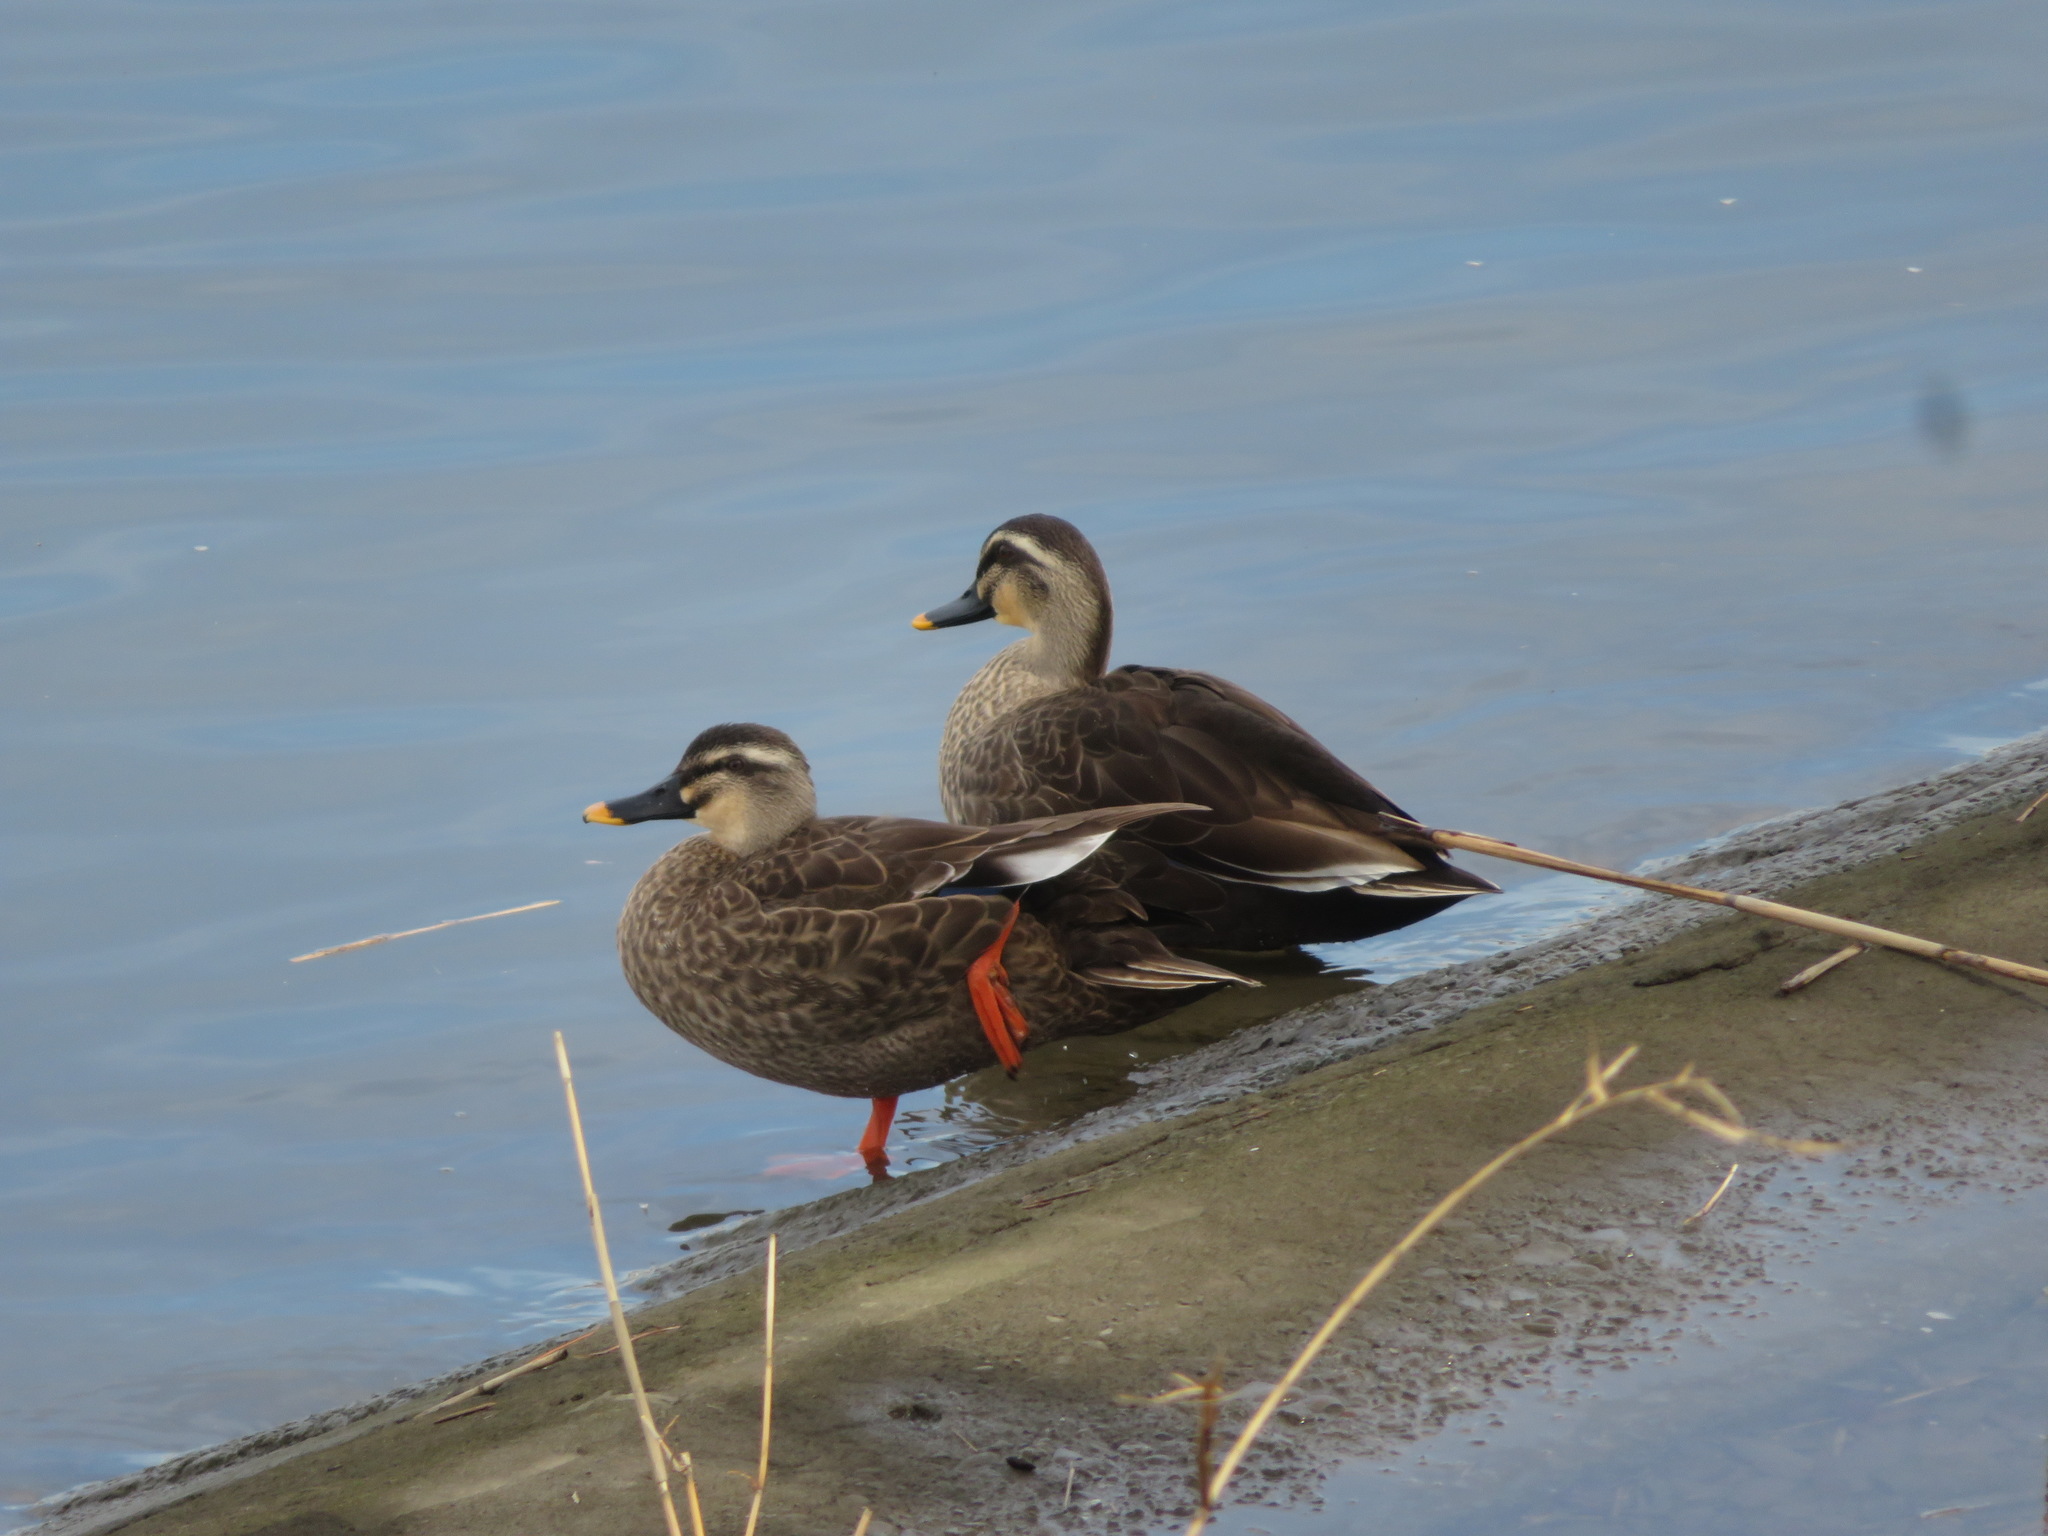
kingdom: Animalia
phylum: Chordata
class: Aves
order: Anseriformes
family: Anatidae
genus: Anas
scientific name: Anas zonorhyncha
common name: Eastern spot-billed duck
